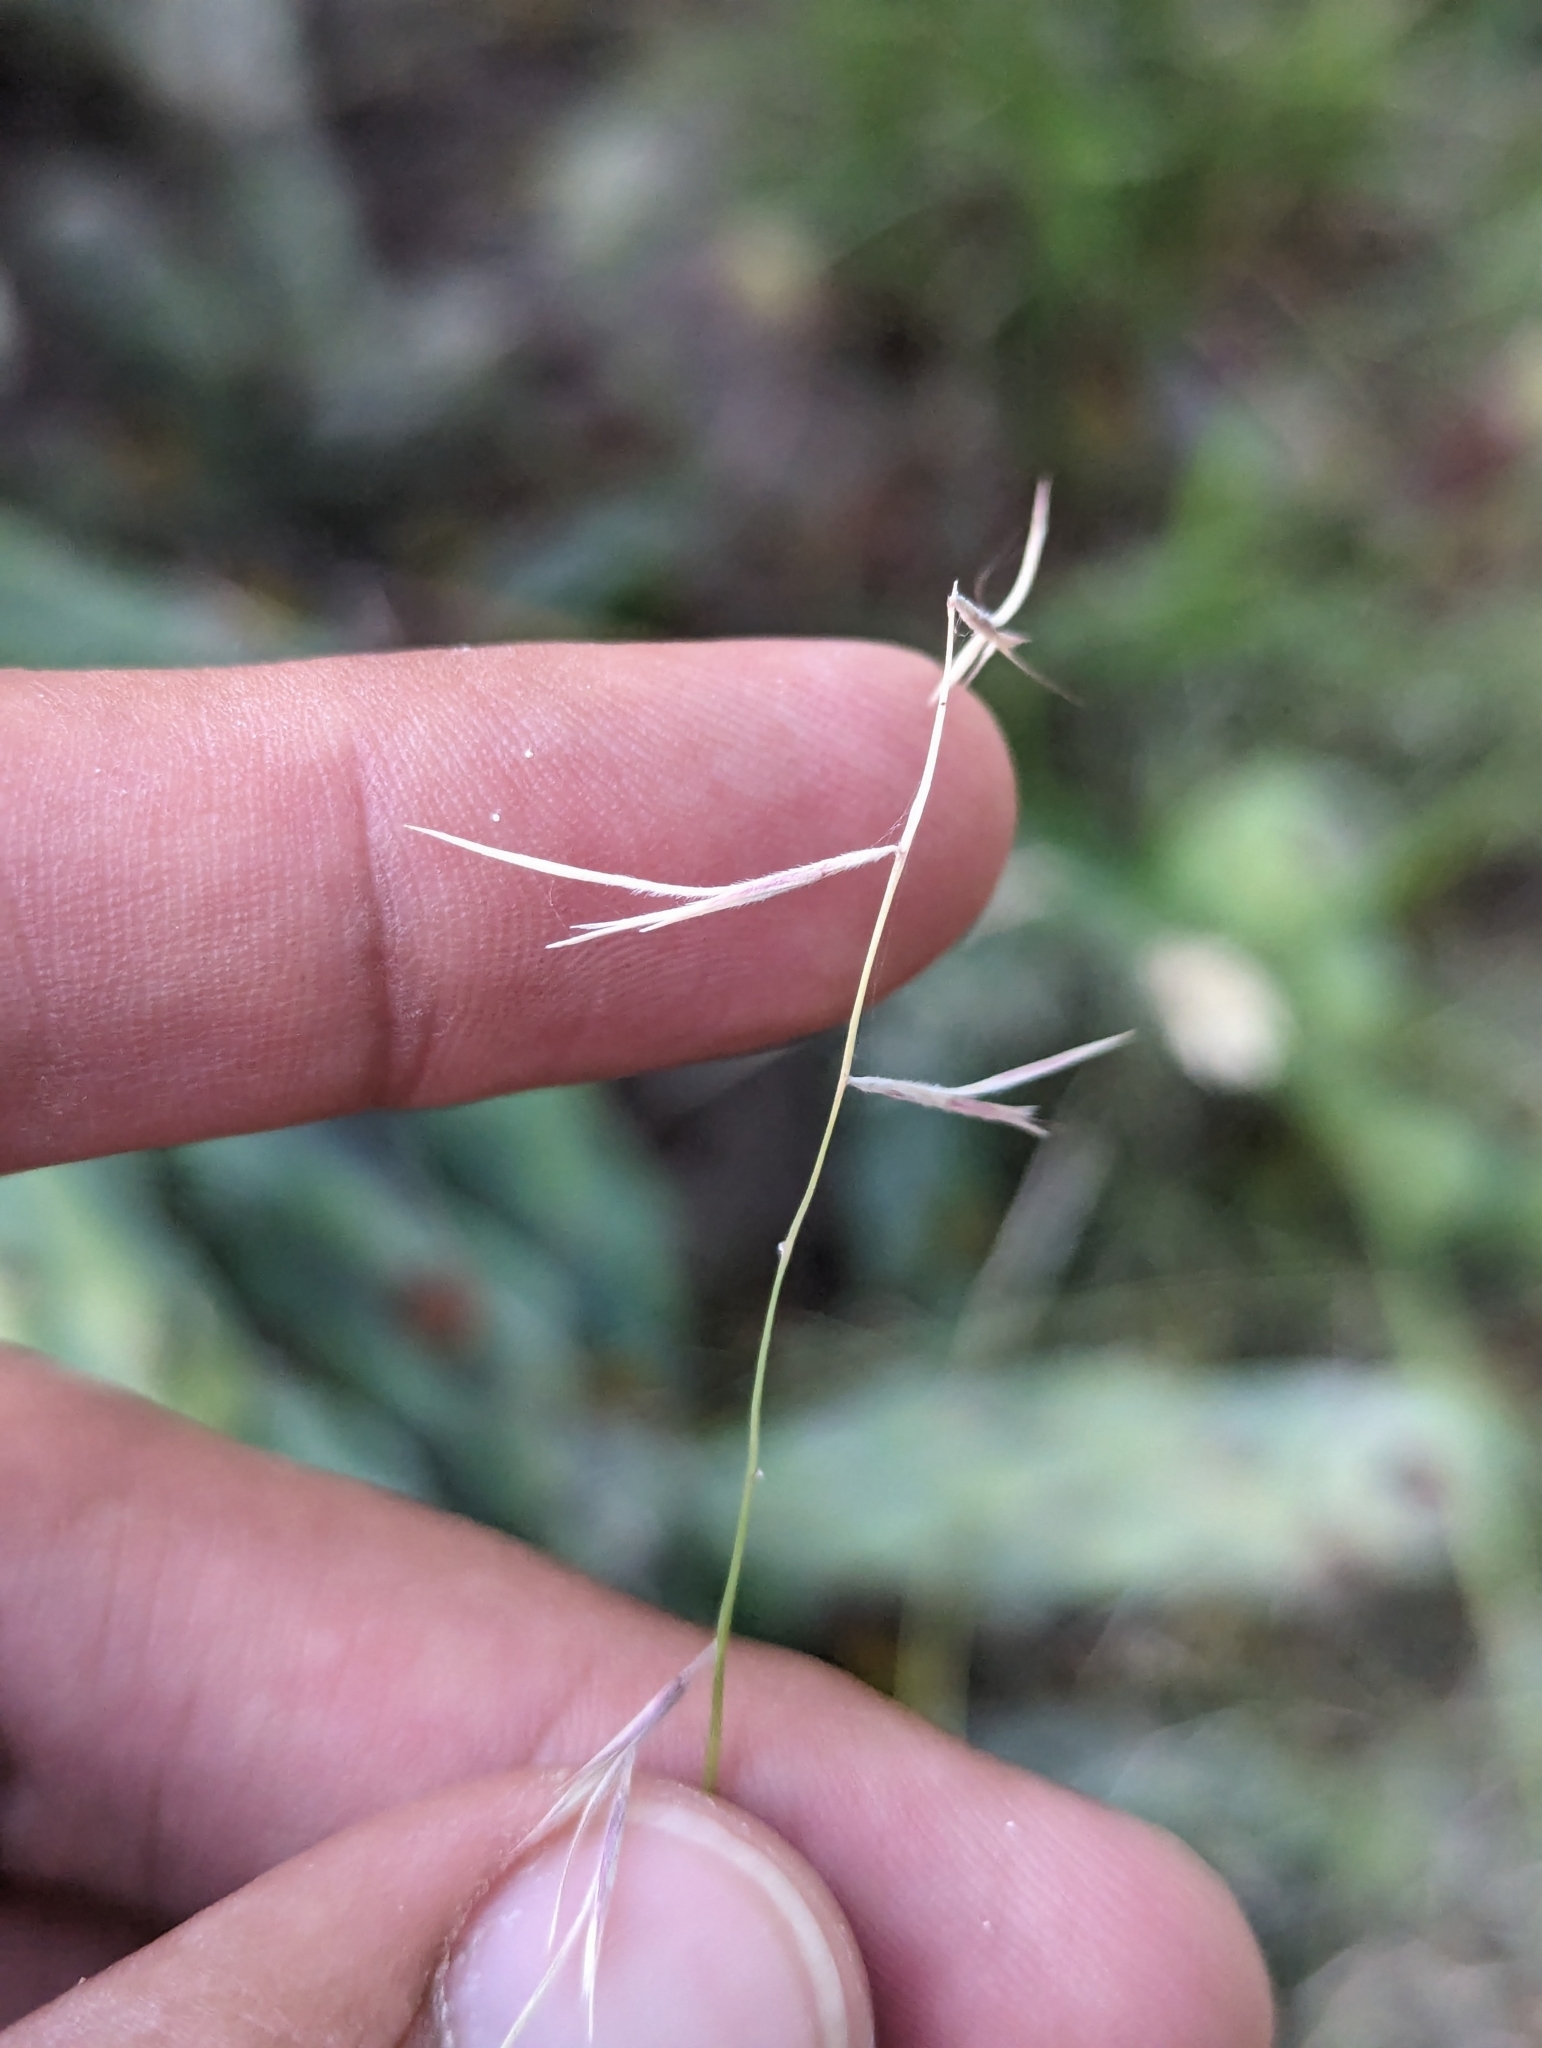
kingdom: Plantae
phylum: Tracheophyta
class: Liliopsida
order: Poales
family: Poaceae
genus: Bouteloua
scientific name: Bouteloua aristidoides
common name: Needle grama
